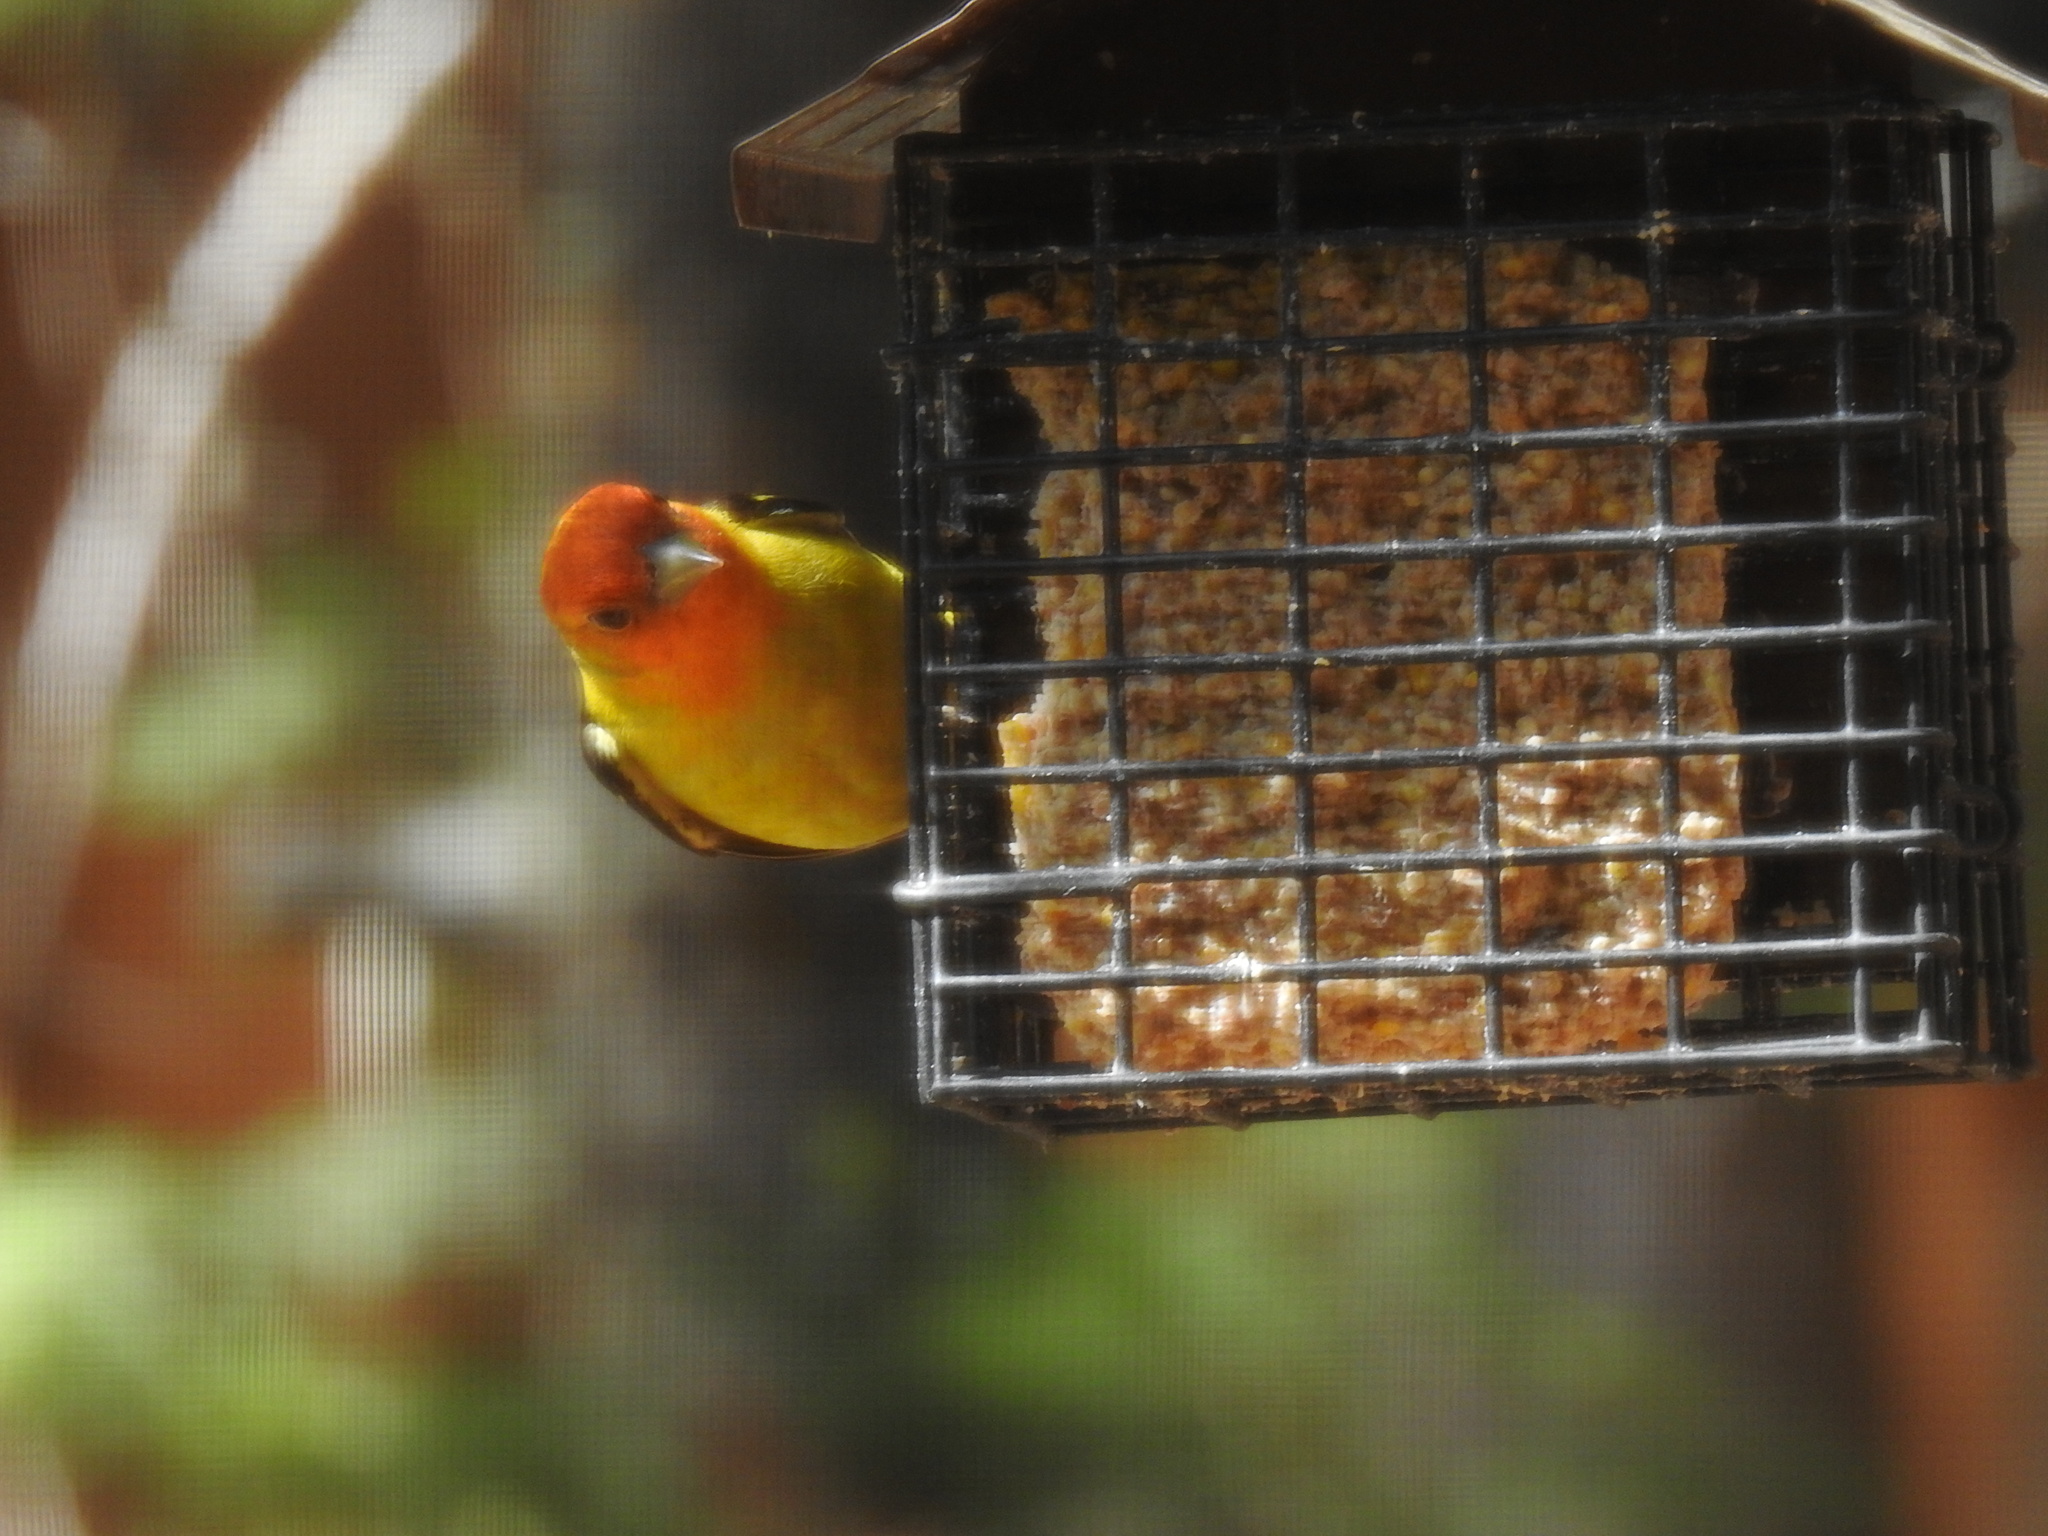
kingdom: Animalia
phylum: Chordata
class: Aves
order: Passeriformes
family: Cardinalidae
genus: Piranga
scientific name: Piranga ludoviciana
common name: Western tanager
